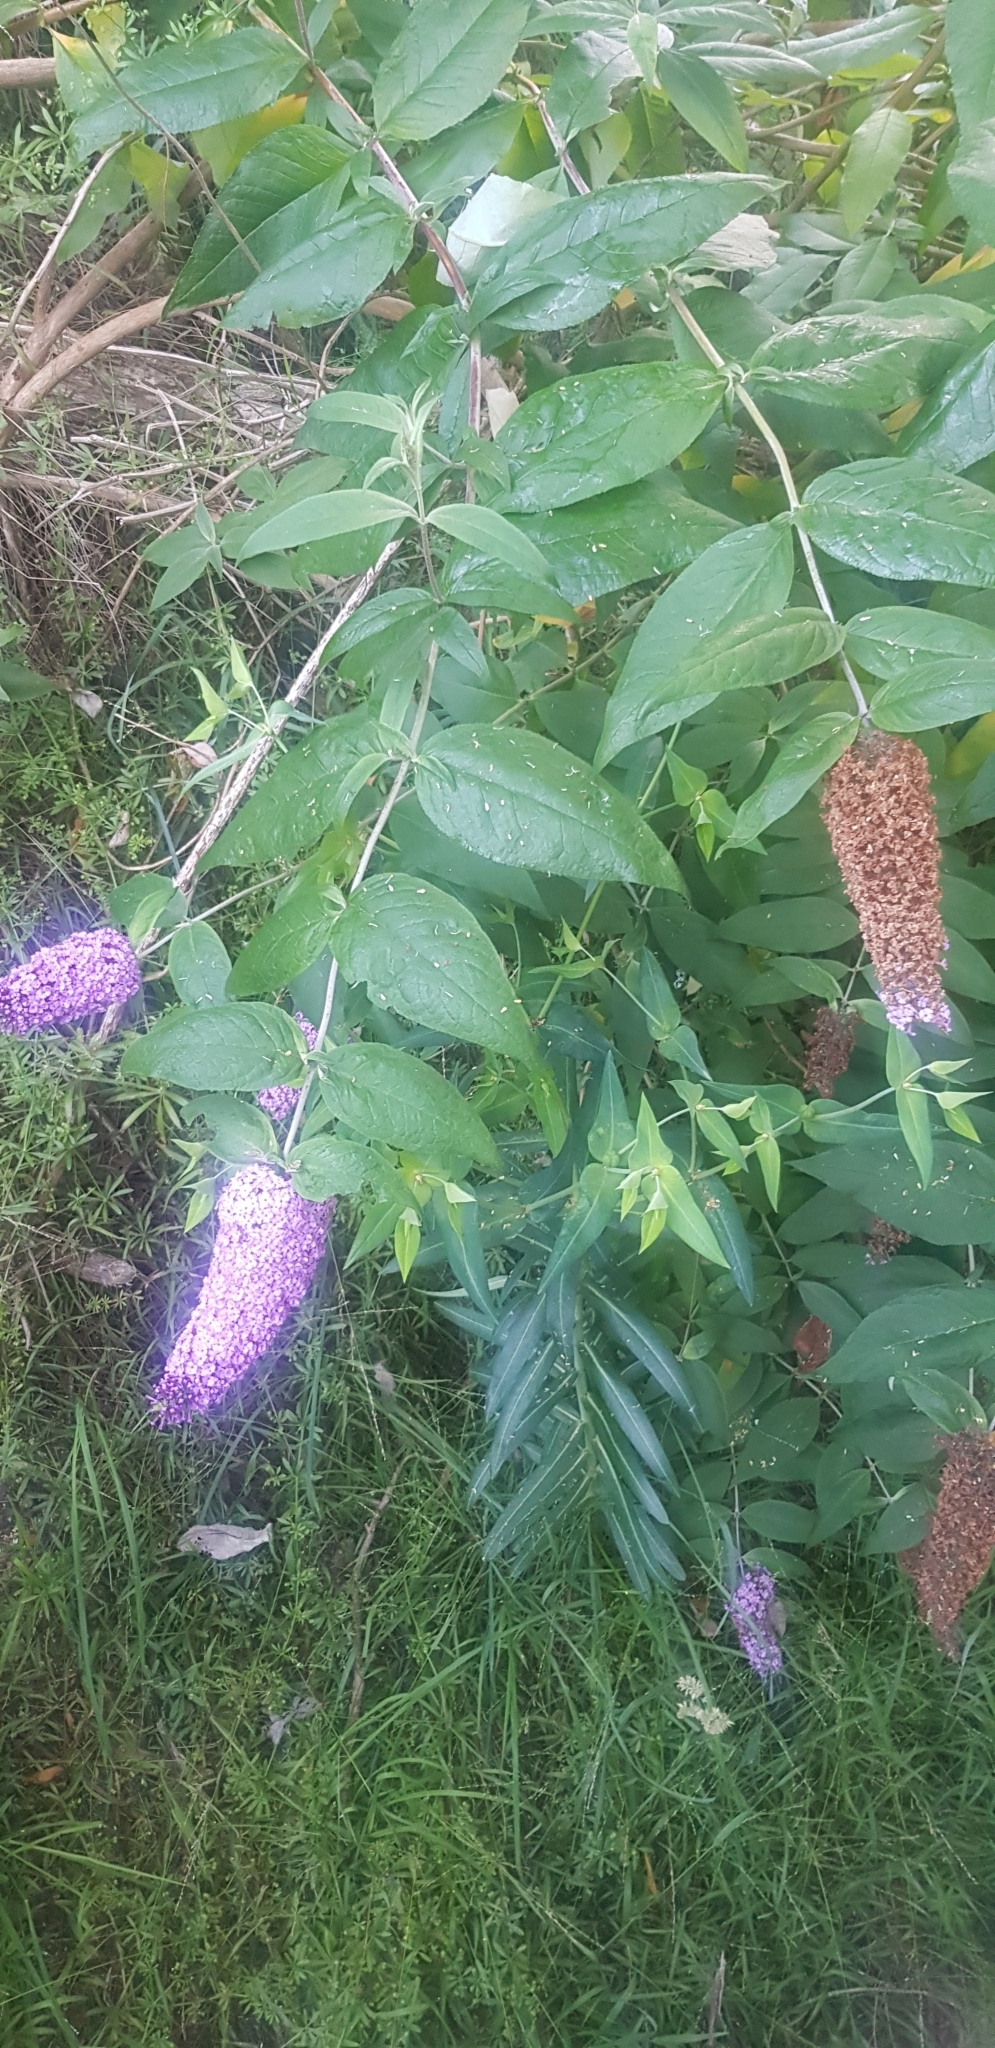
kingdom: Plantae
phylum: Tracheophyta
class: Magnoliopsida
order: Lamiales
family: Scrophulariaceae
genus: Buddleja
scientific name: Buddleja davidii
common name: Butterfly-bush
